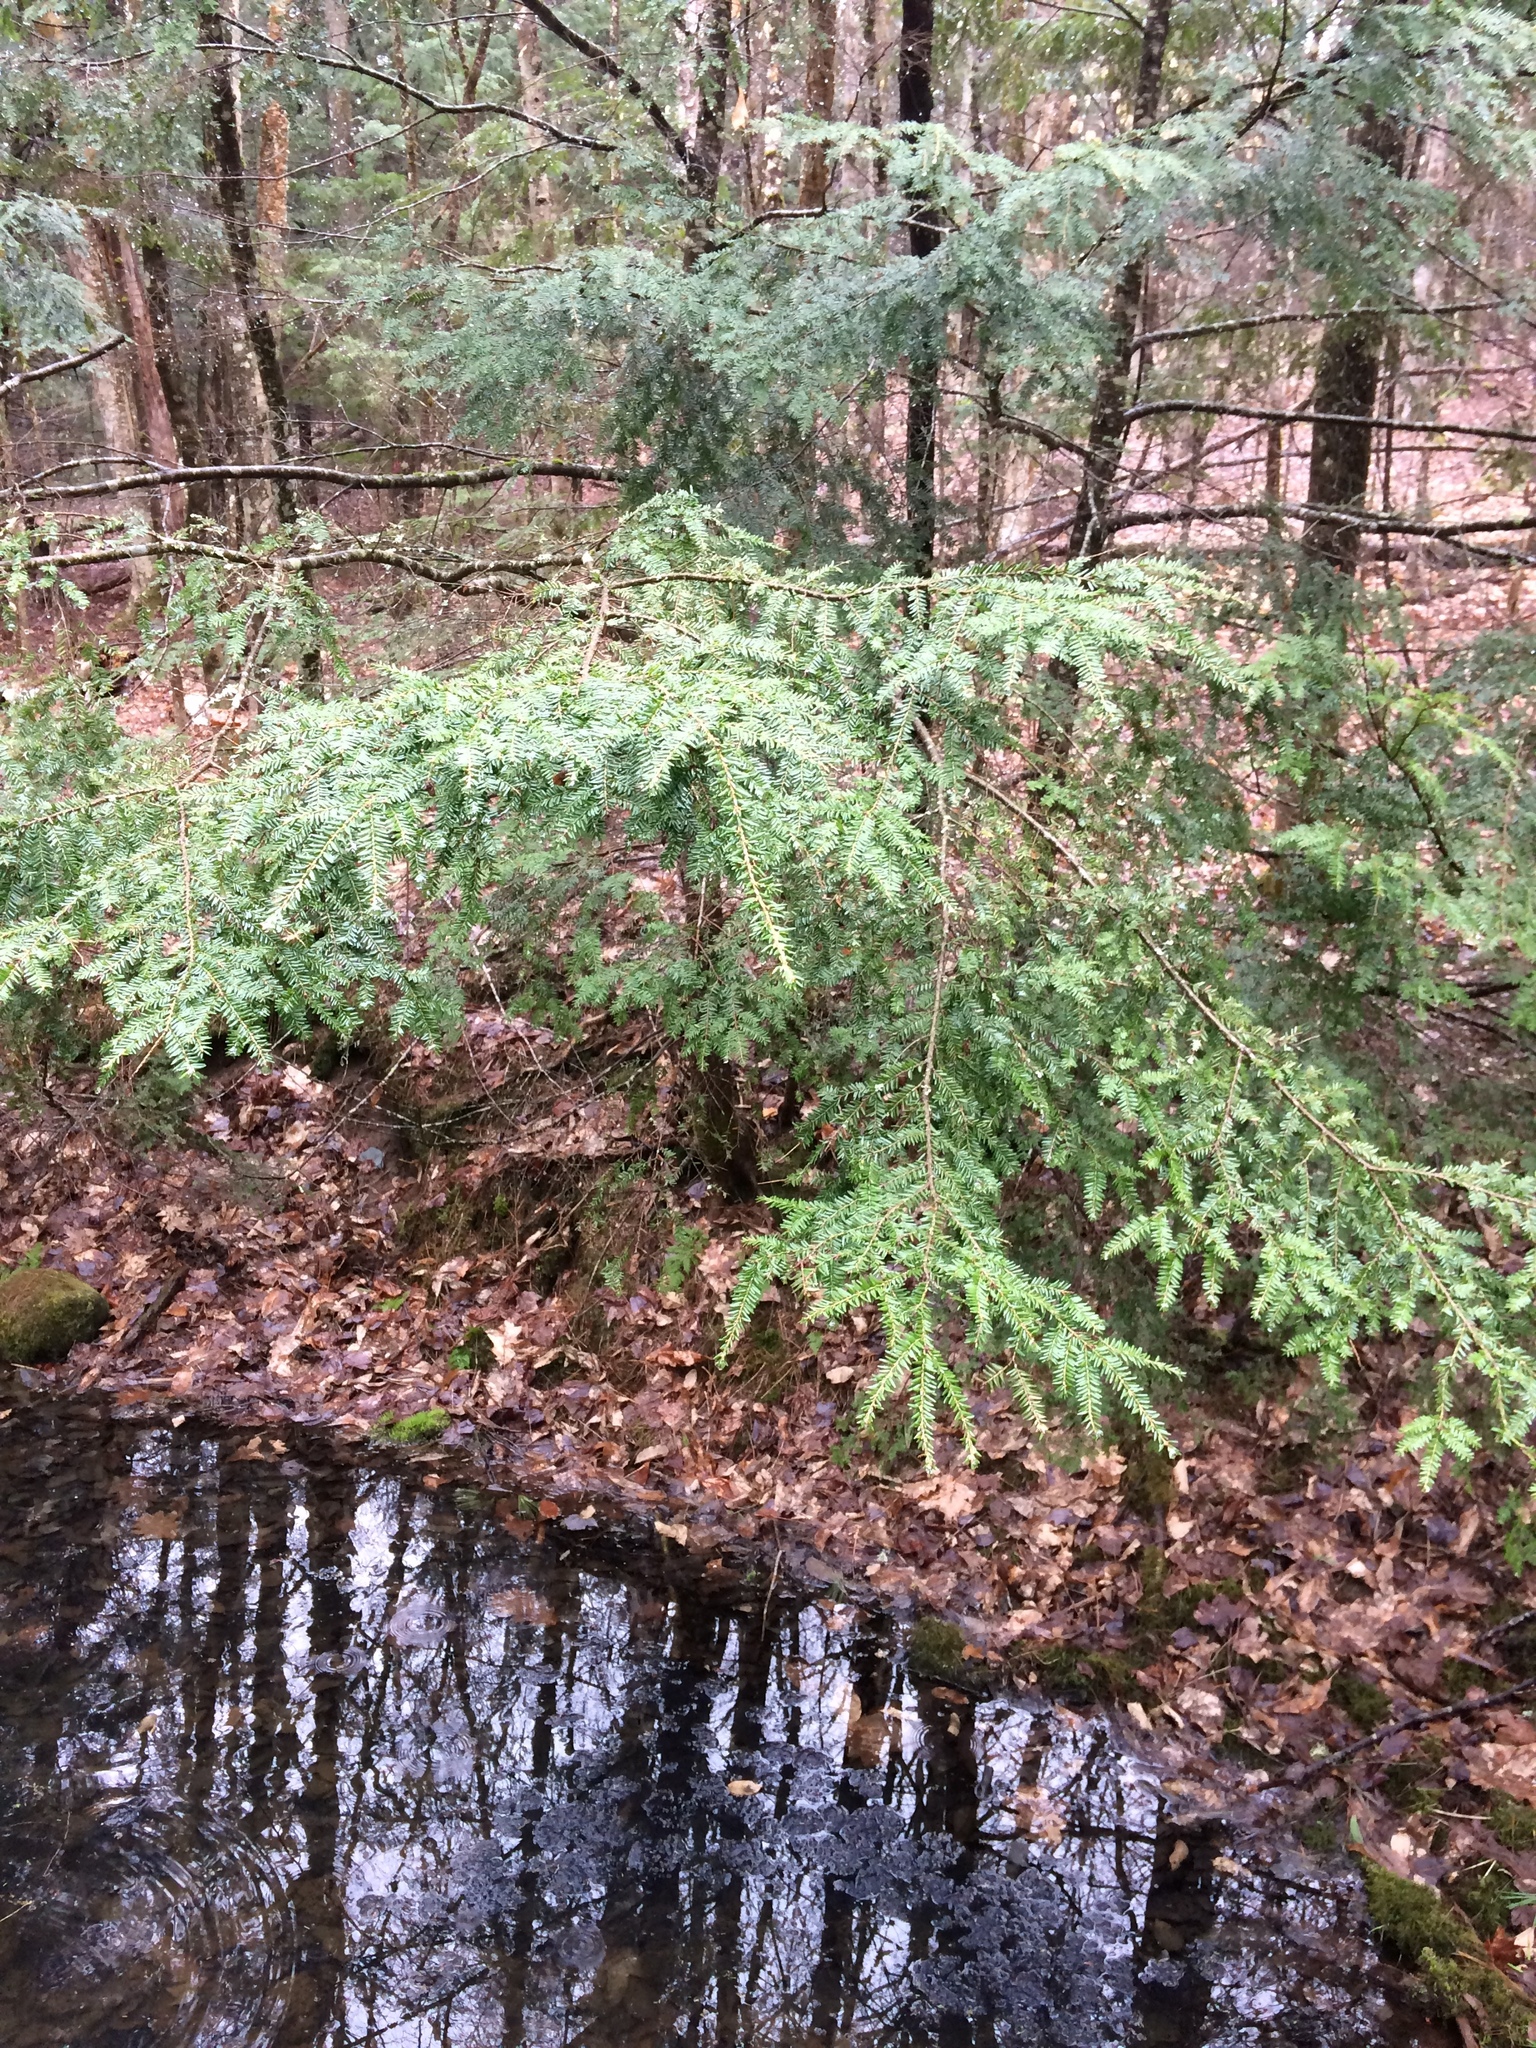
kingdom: Plantae
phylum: Tracheophyta
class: Pinopsida
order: Pinales
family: Pinaceae
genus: Tsuga
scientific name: Tsuga canadensis
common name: Eastern hemlock
